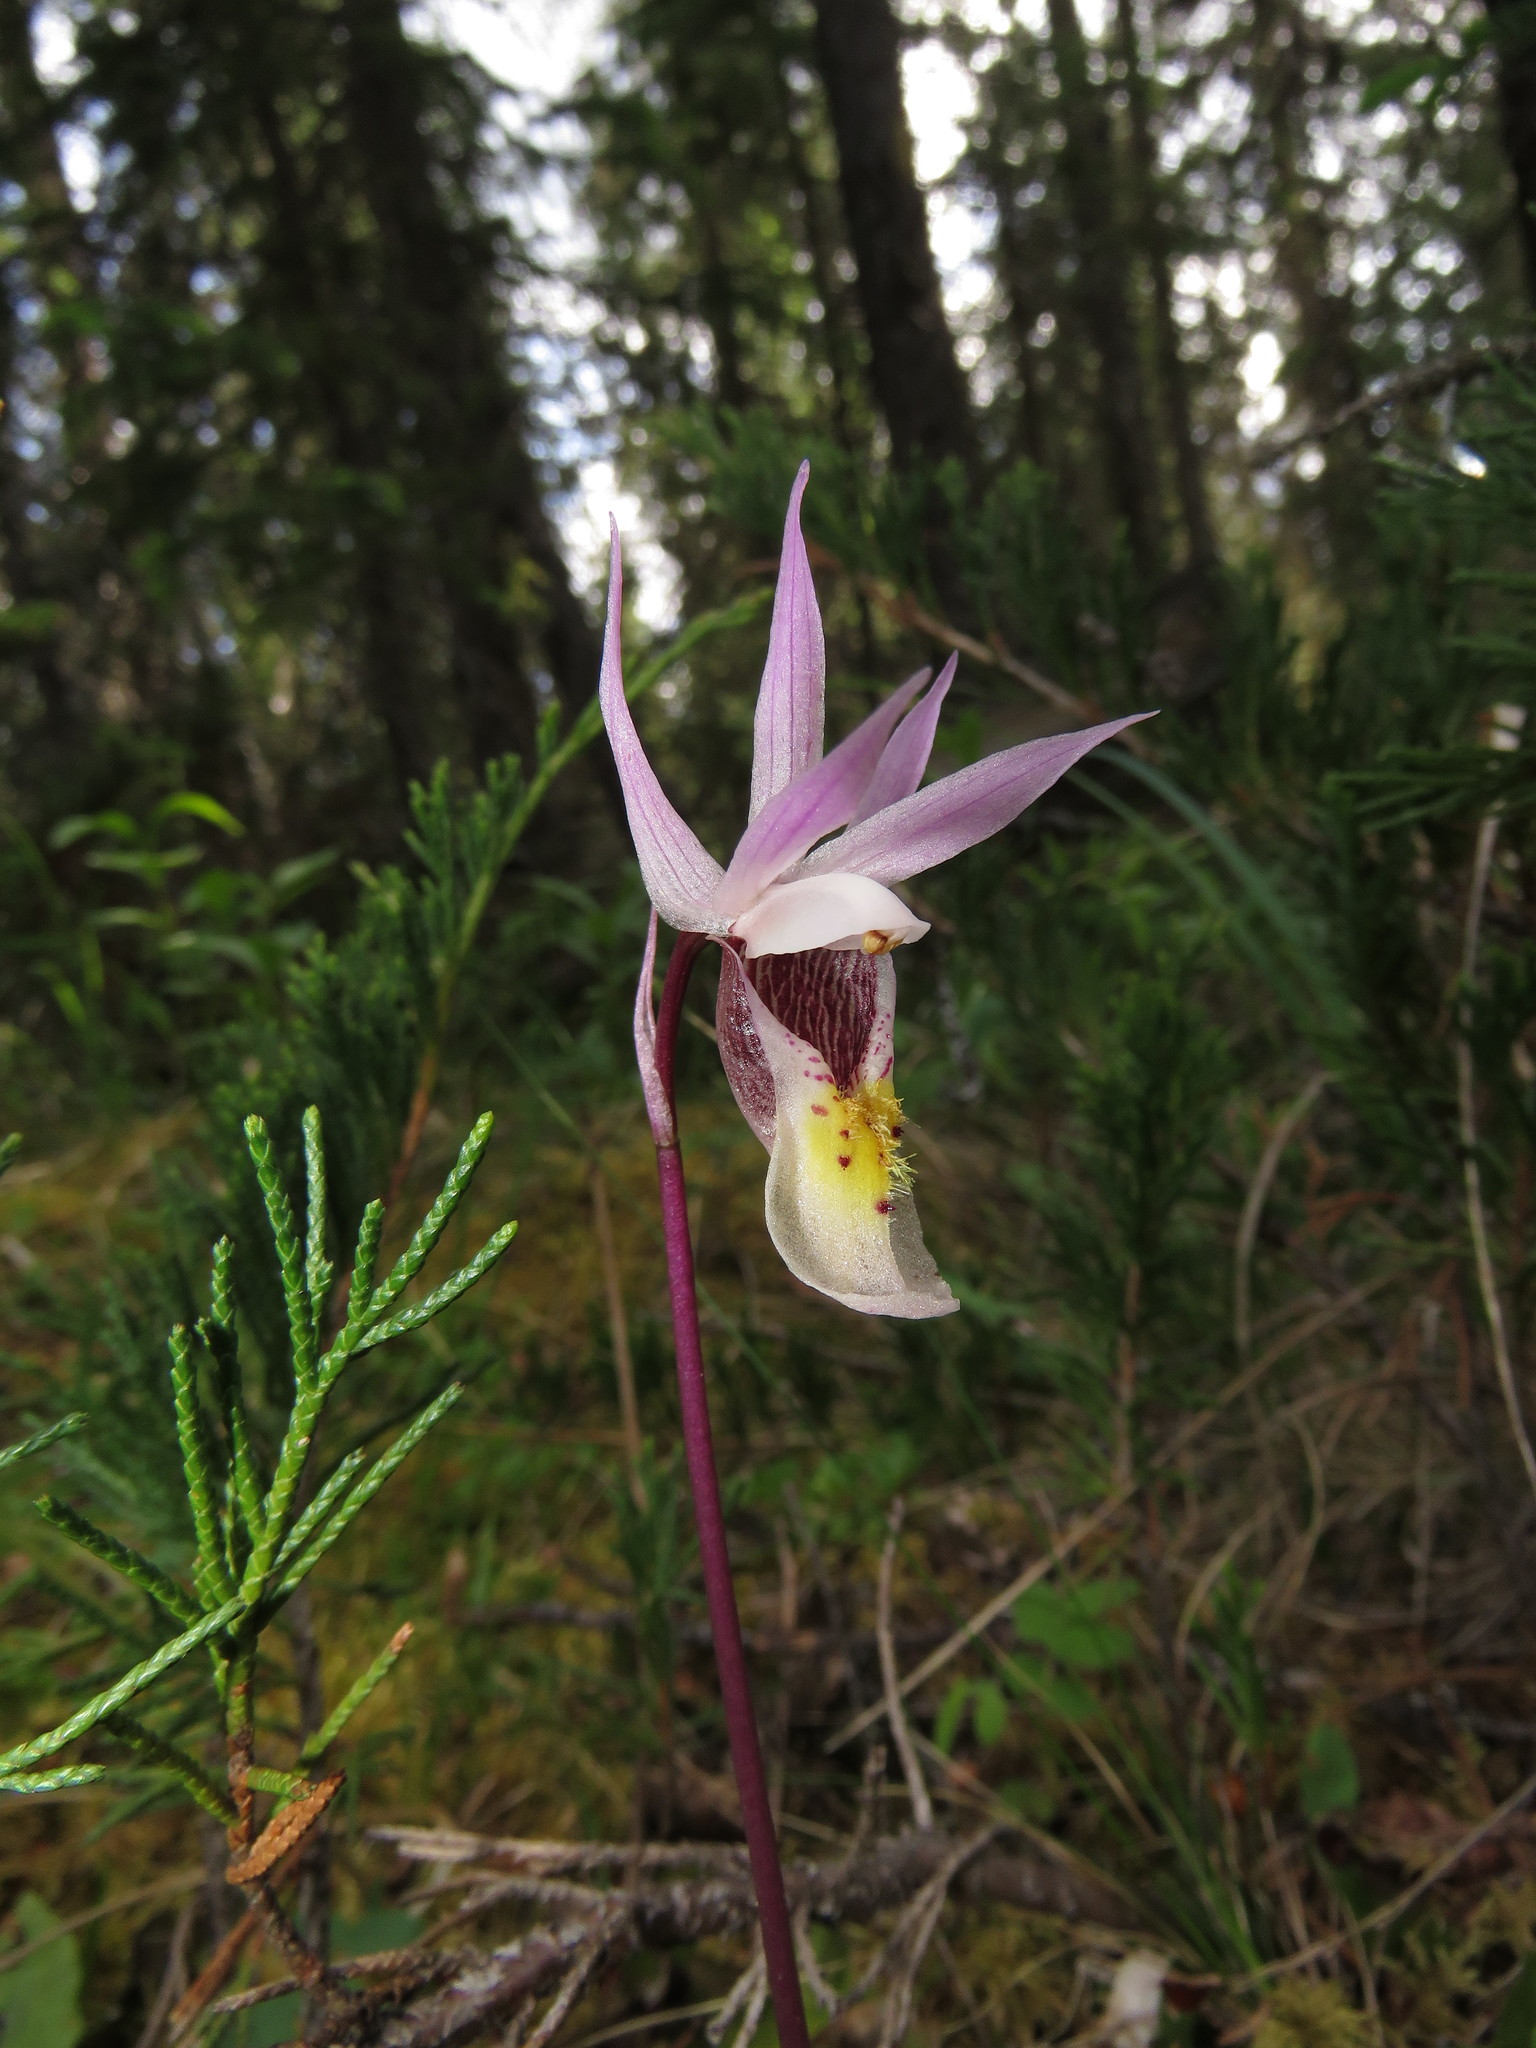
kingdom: Plantae
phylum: Tracheophyta
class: Liliopsida
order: Asparagales
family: Orchidaceae
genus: Calypso
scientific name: Calypso bulbosa
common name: Calypso
